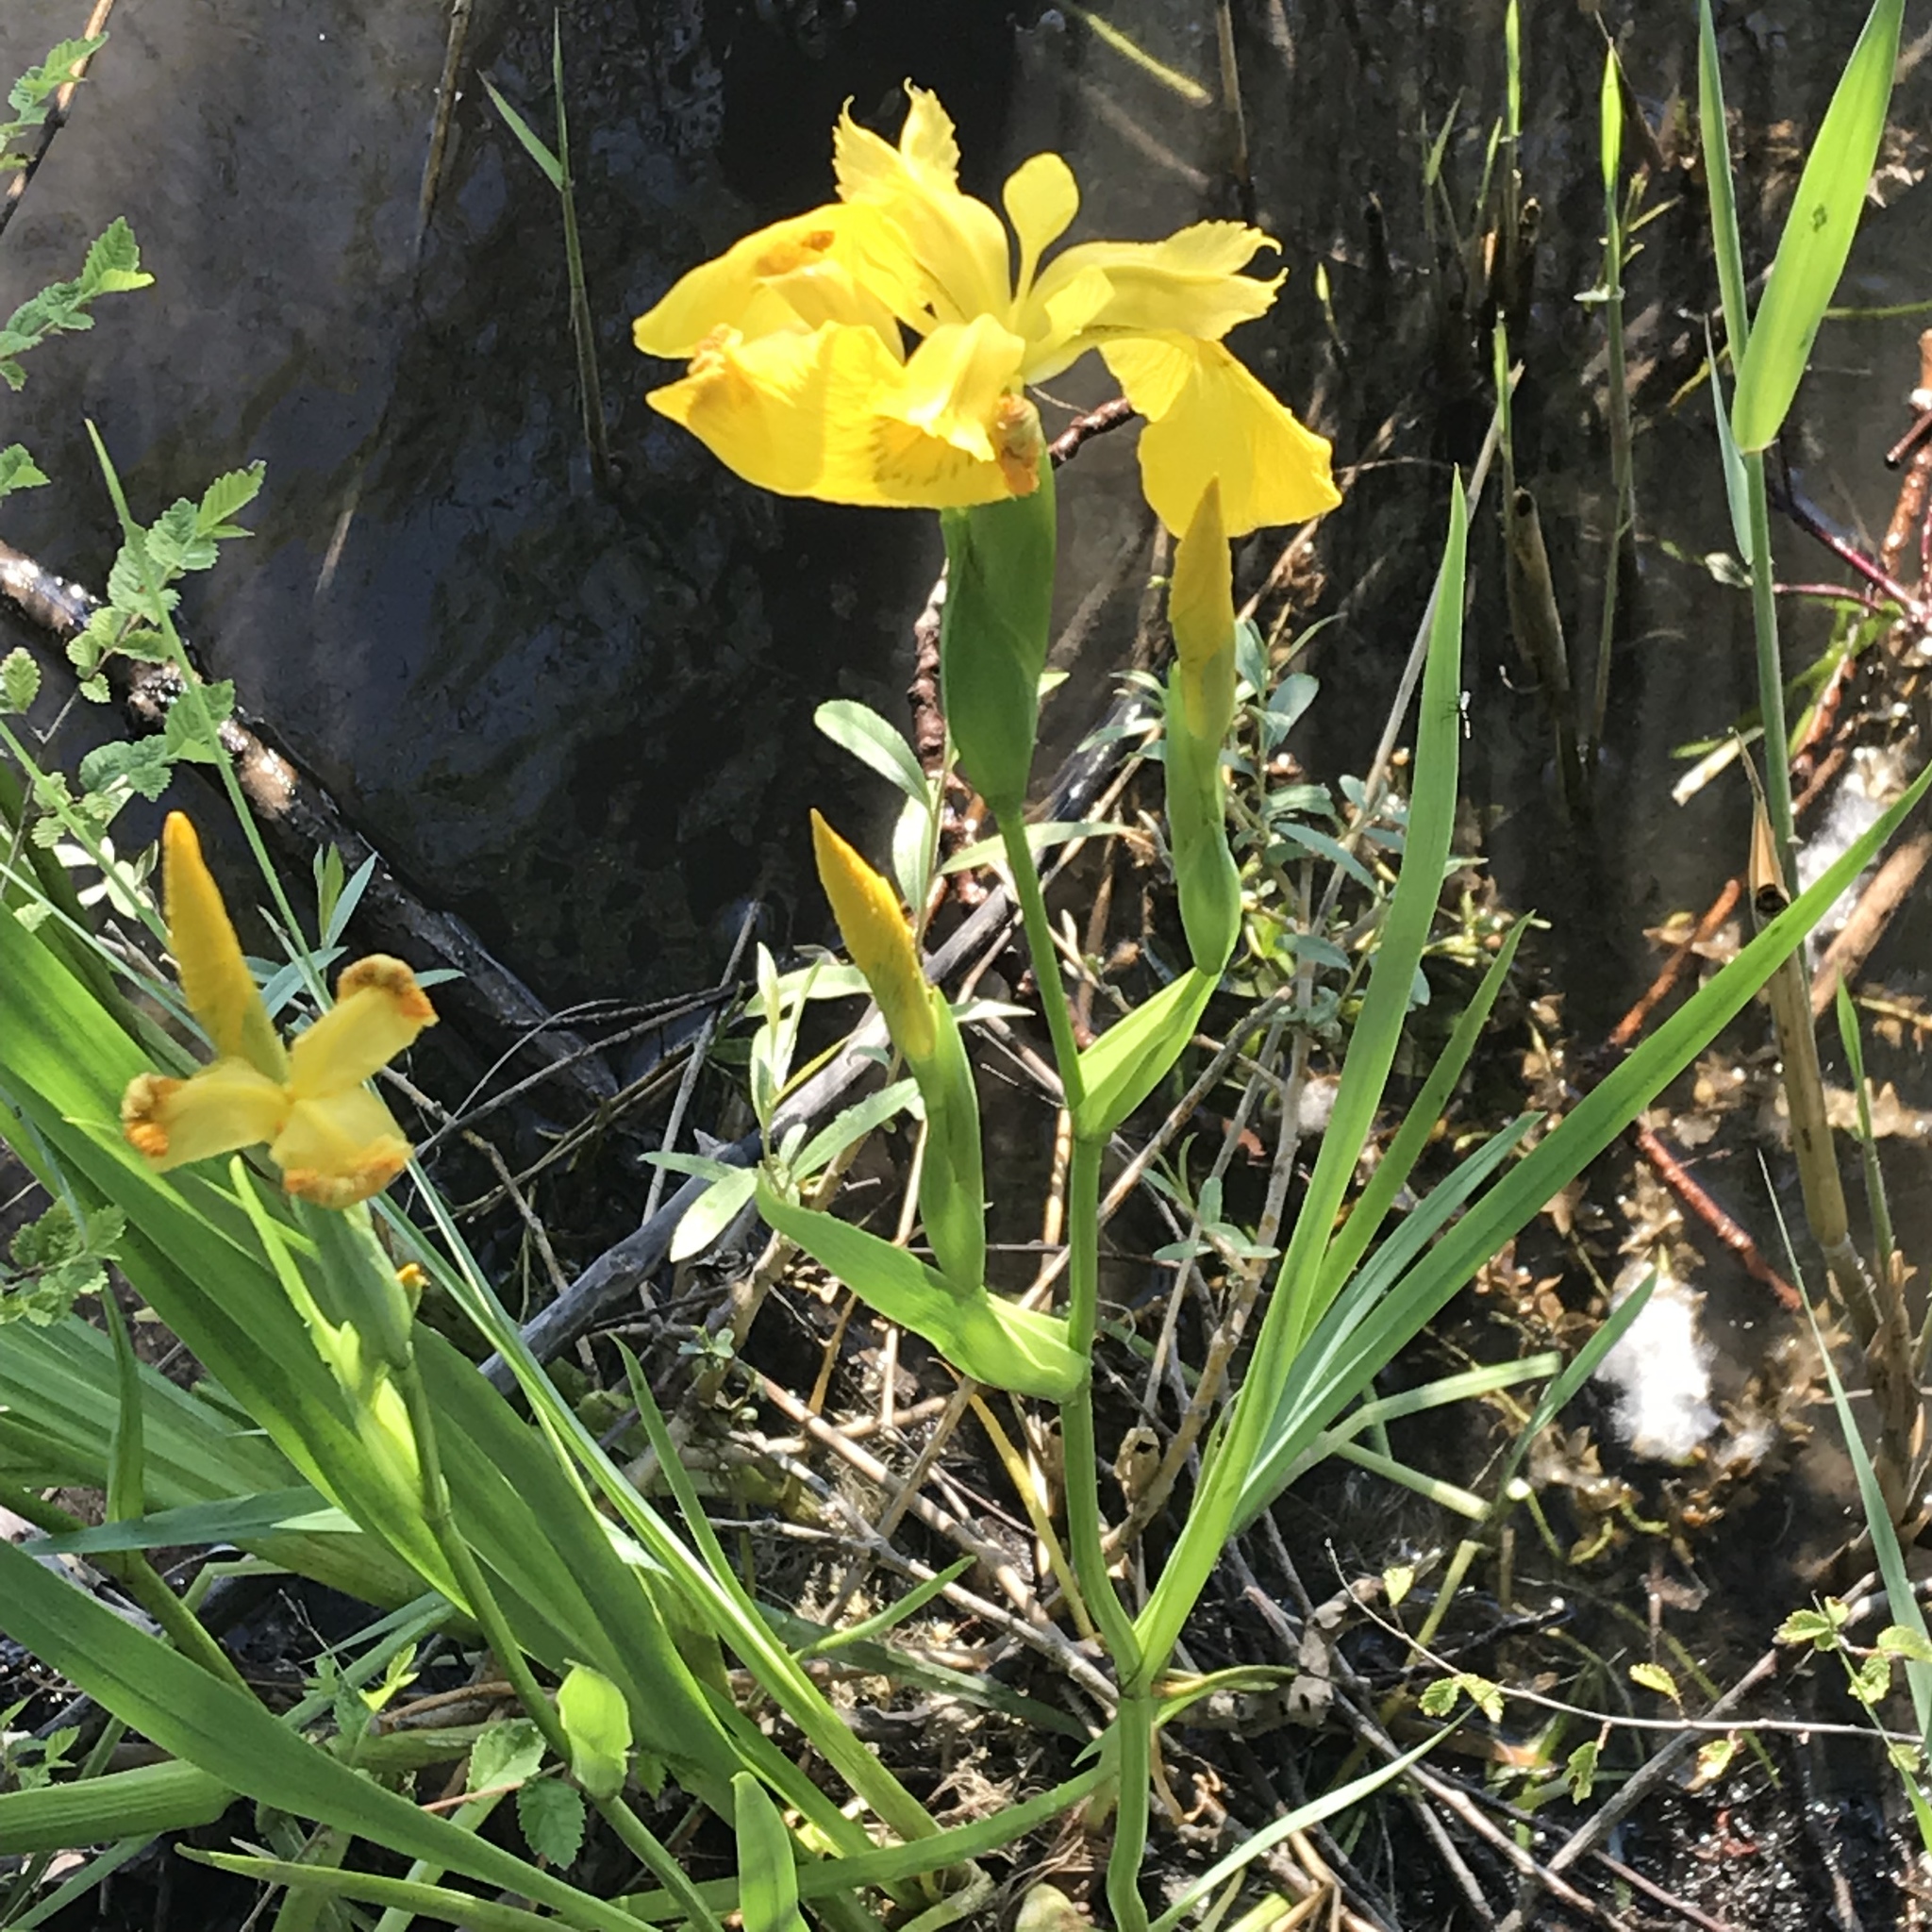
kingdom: Plantae
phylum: Tracheophyta
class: Liliopsida
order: Asparagales
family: Iridaceae
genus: Iris
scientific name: Iris pseudacorus
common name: Yellow flag
